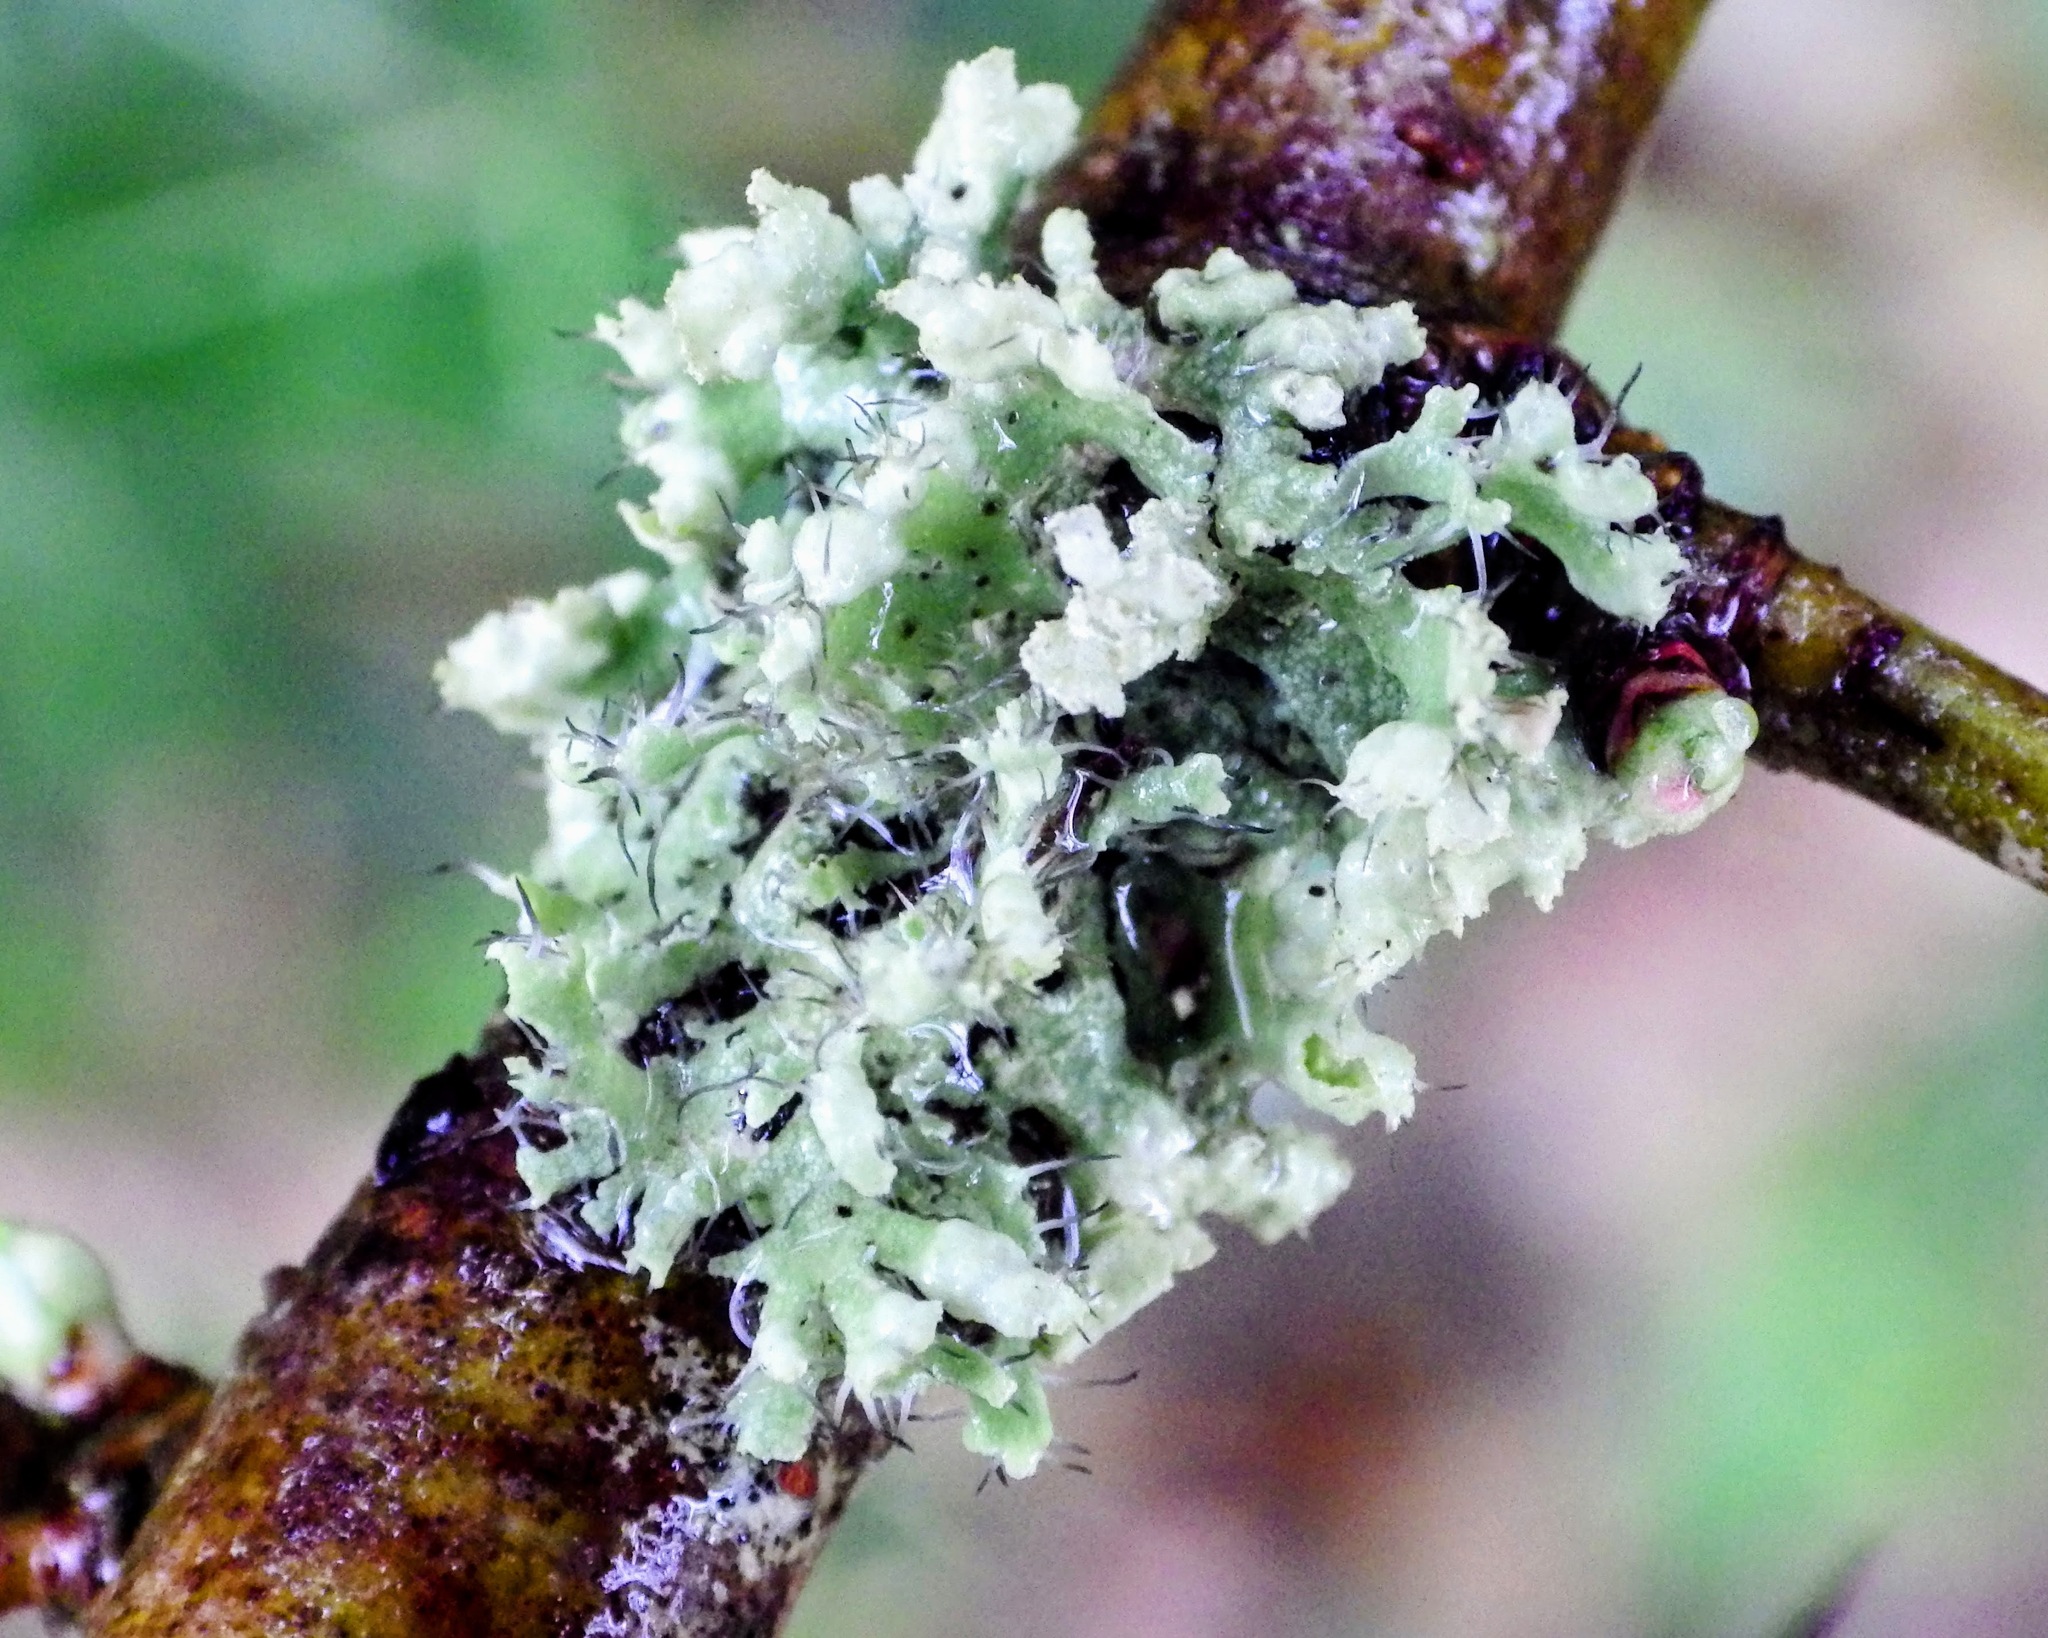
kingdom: Fungi
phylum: Ascomycota
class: Lecanoromycetes
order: Caliciales
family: Physciaceae
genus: Physcia
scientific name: Physcia adscendens
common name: Hooded rosette lichen
